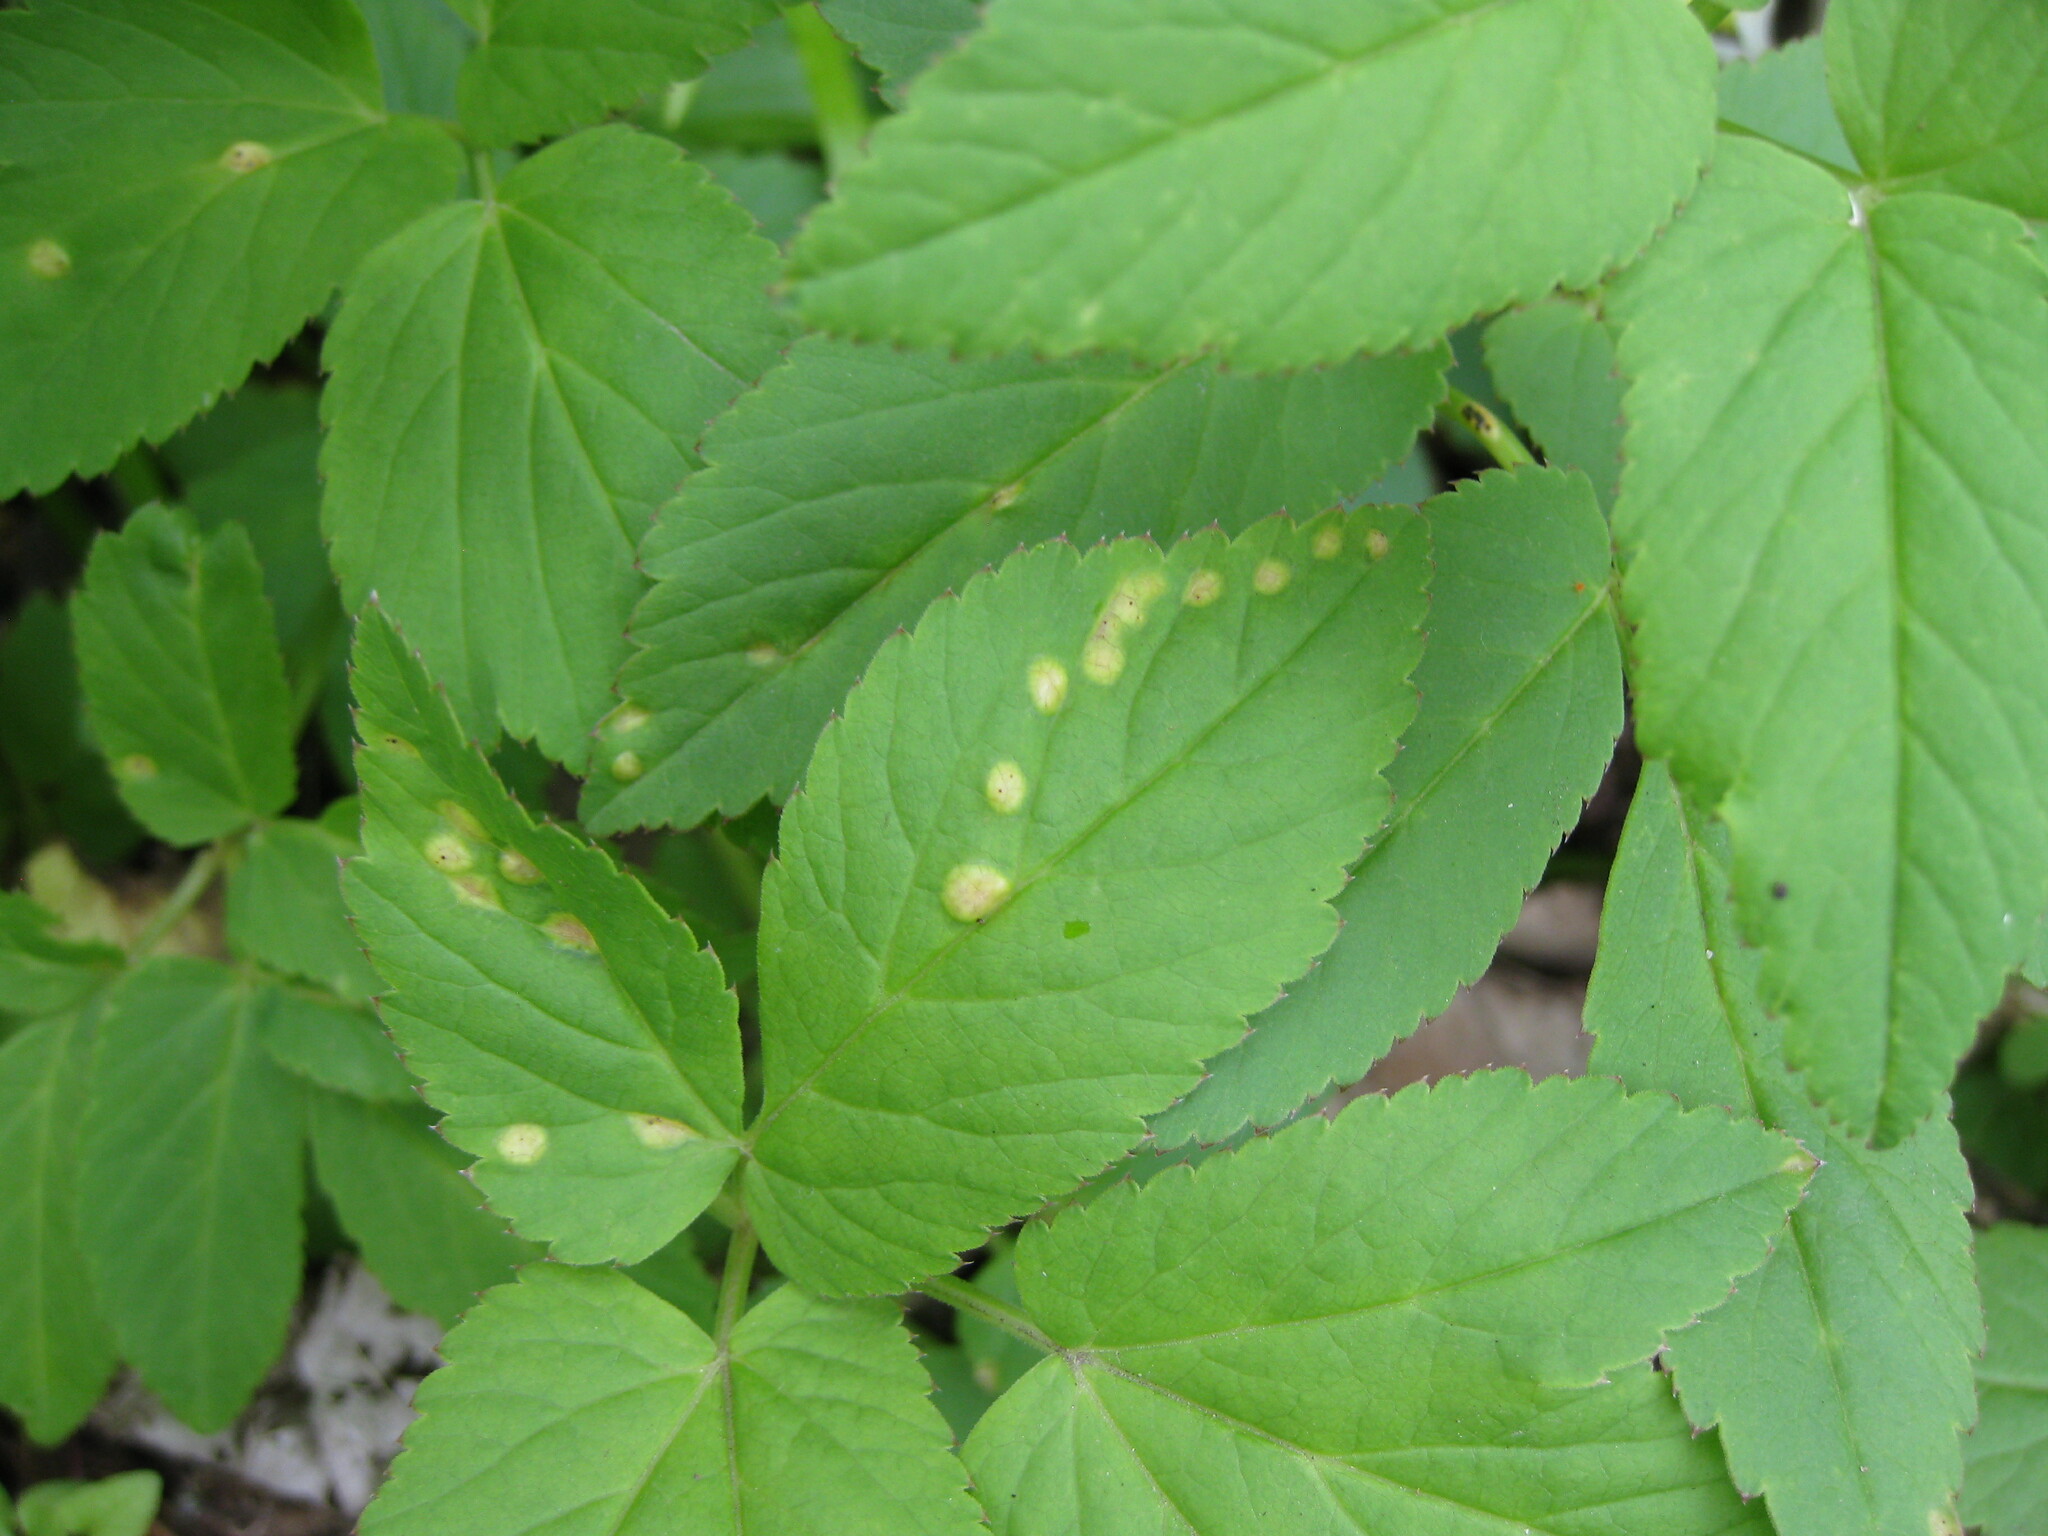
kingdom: Fungi
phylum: Basidiomycota
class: Pucciniomycetes
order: Pucciniales
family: Pucciniaceae
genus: Puccinia
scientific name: Puccinia aegopodii
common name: Ground elder rust
